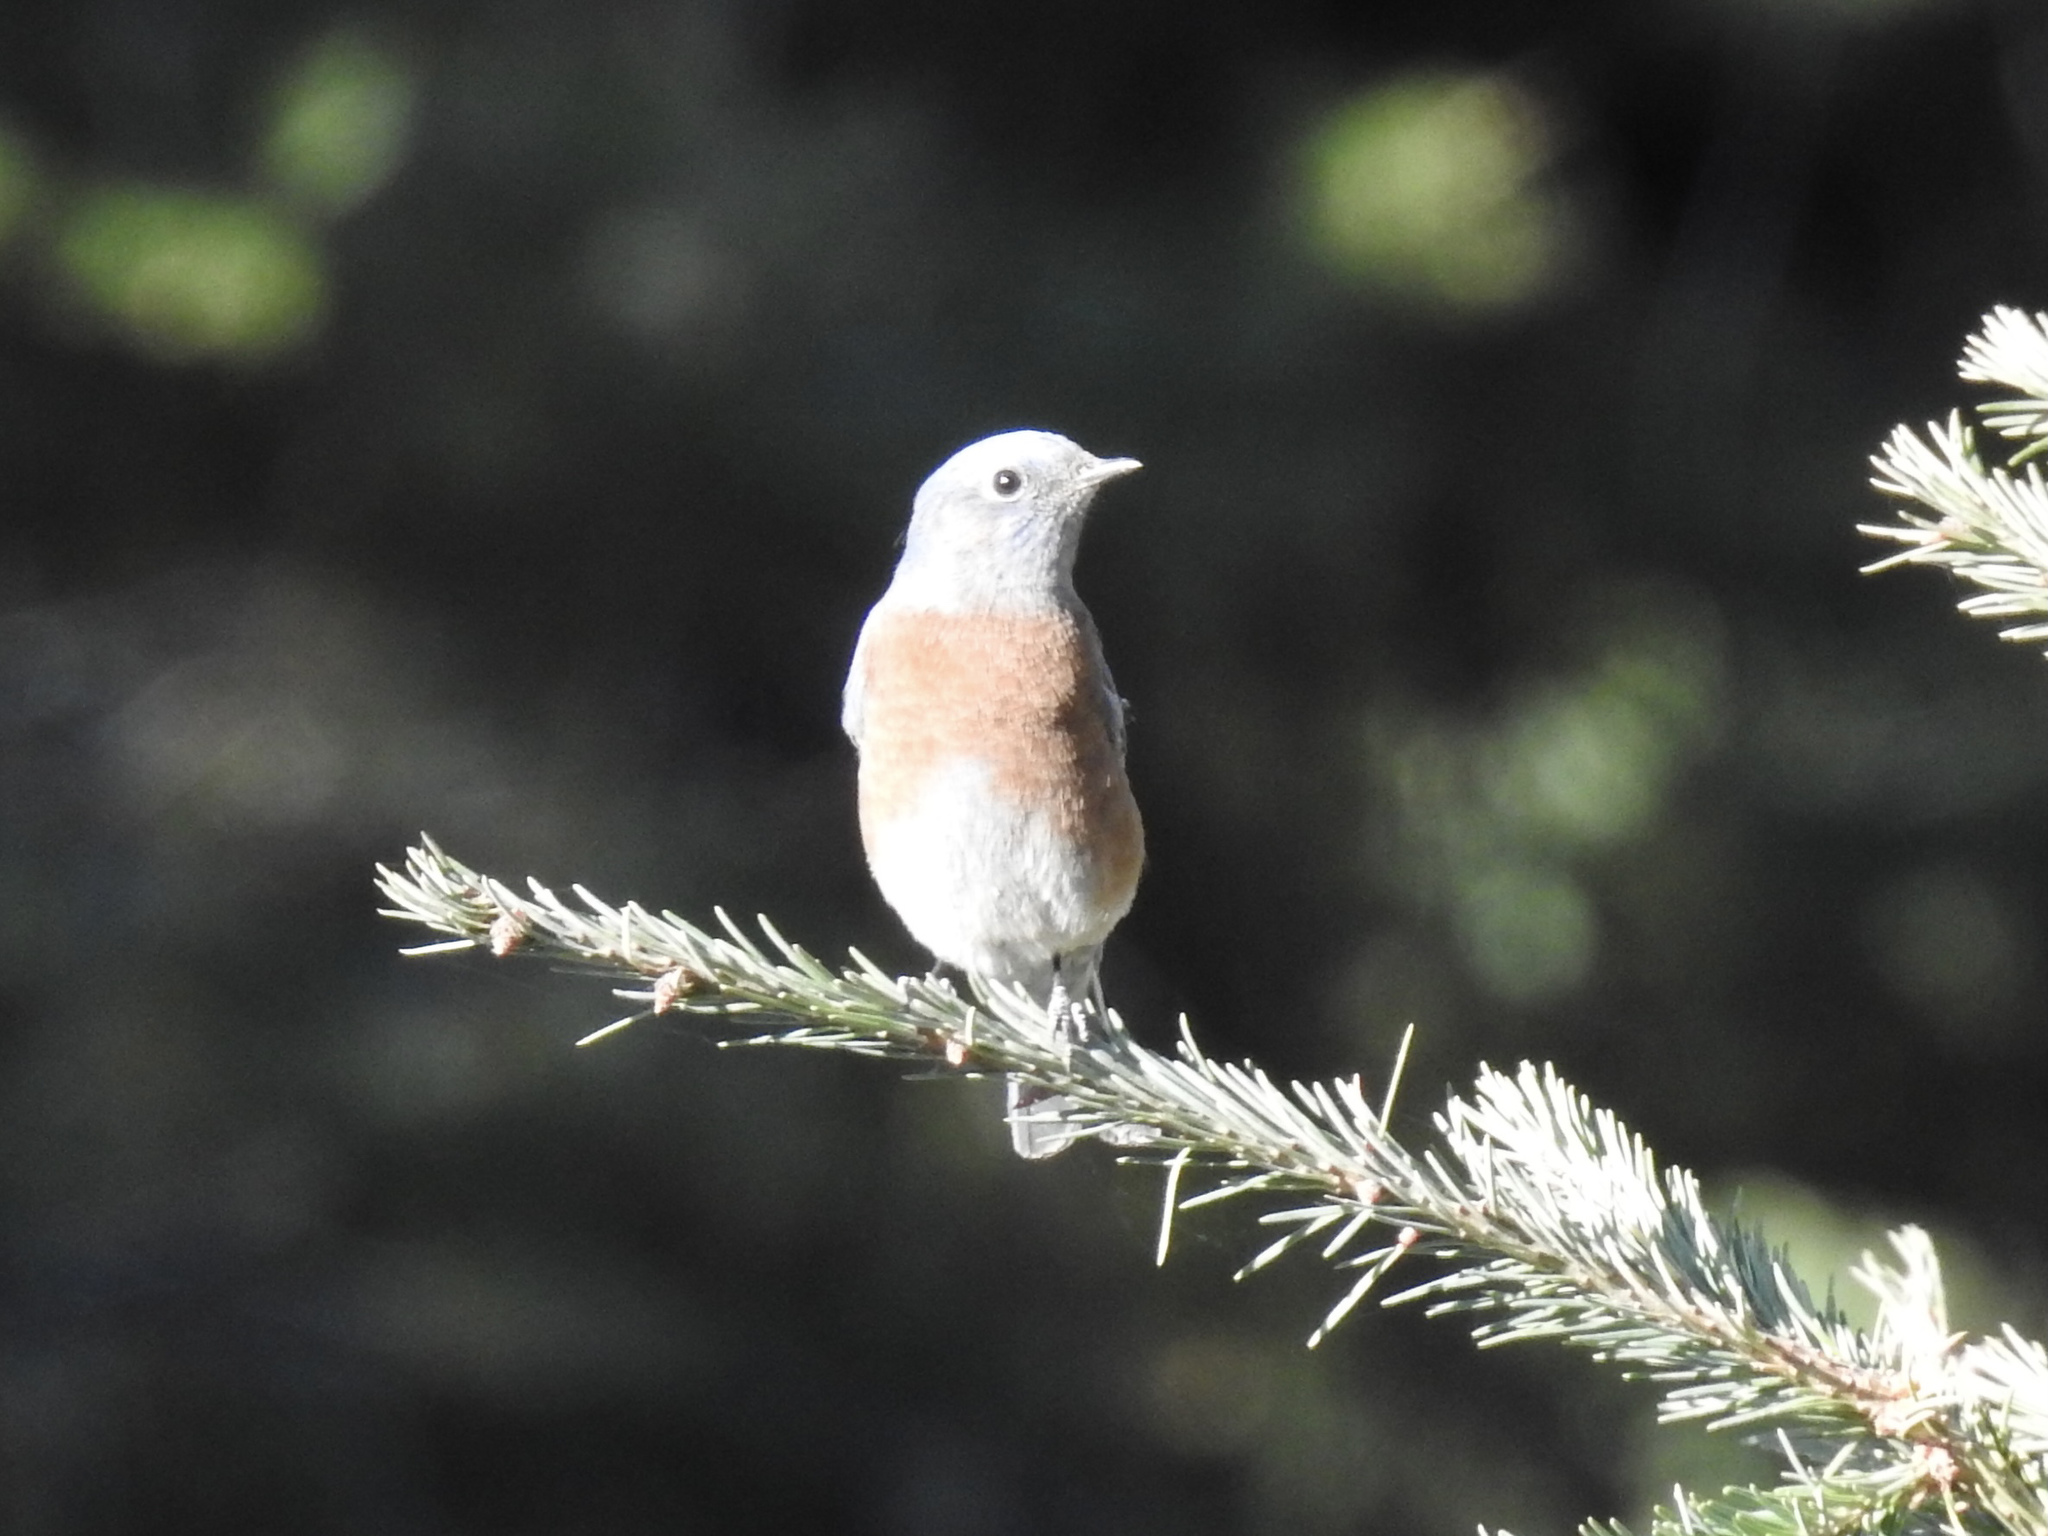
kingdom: Animalia
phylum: Chordata
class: Aves
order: Passeriformes
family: Turdidae
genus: Sialia
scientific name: Sialia mexicana
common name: Western bluebird
